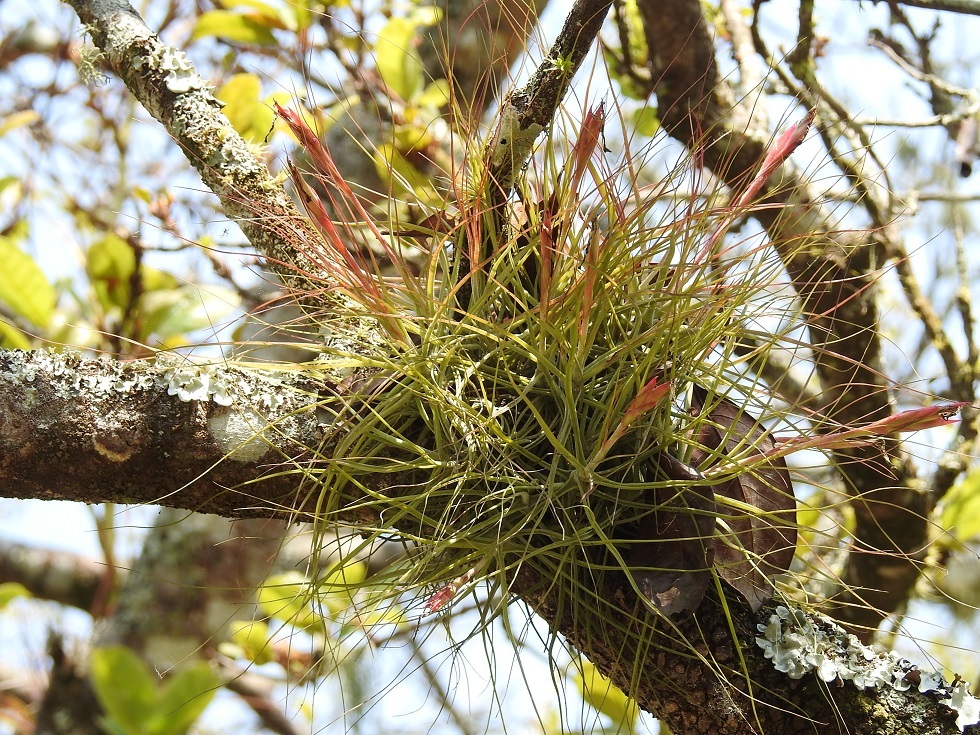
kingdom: Plantae
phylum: Tracheophyta
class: Liliopsida
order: Poales
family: Bromeliaceae
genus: Tillandsia
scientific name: Tillandsia schiedeana
